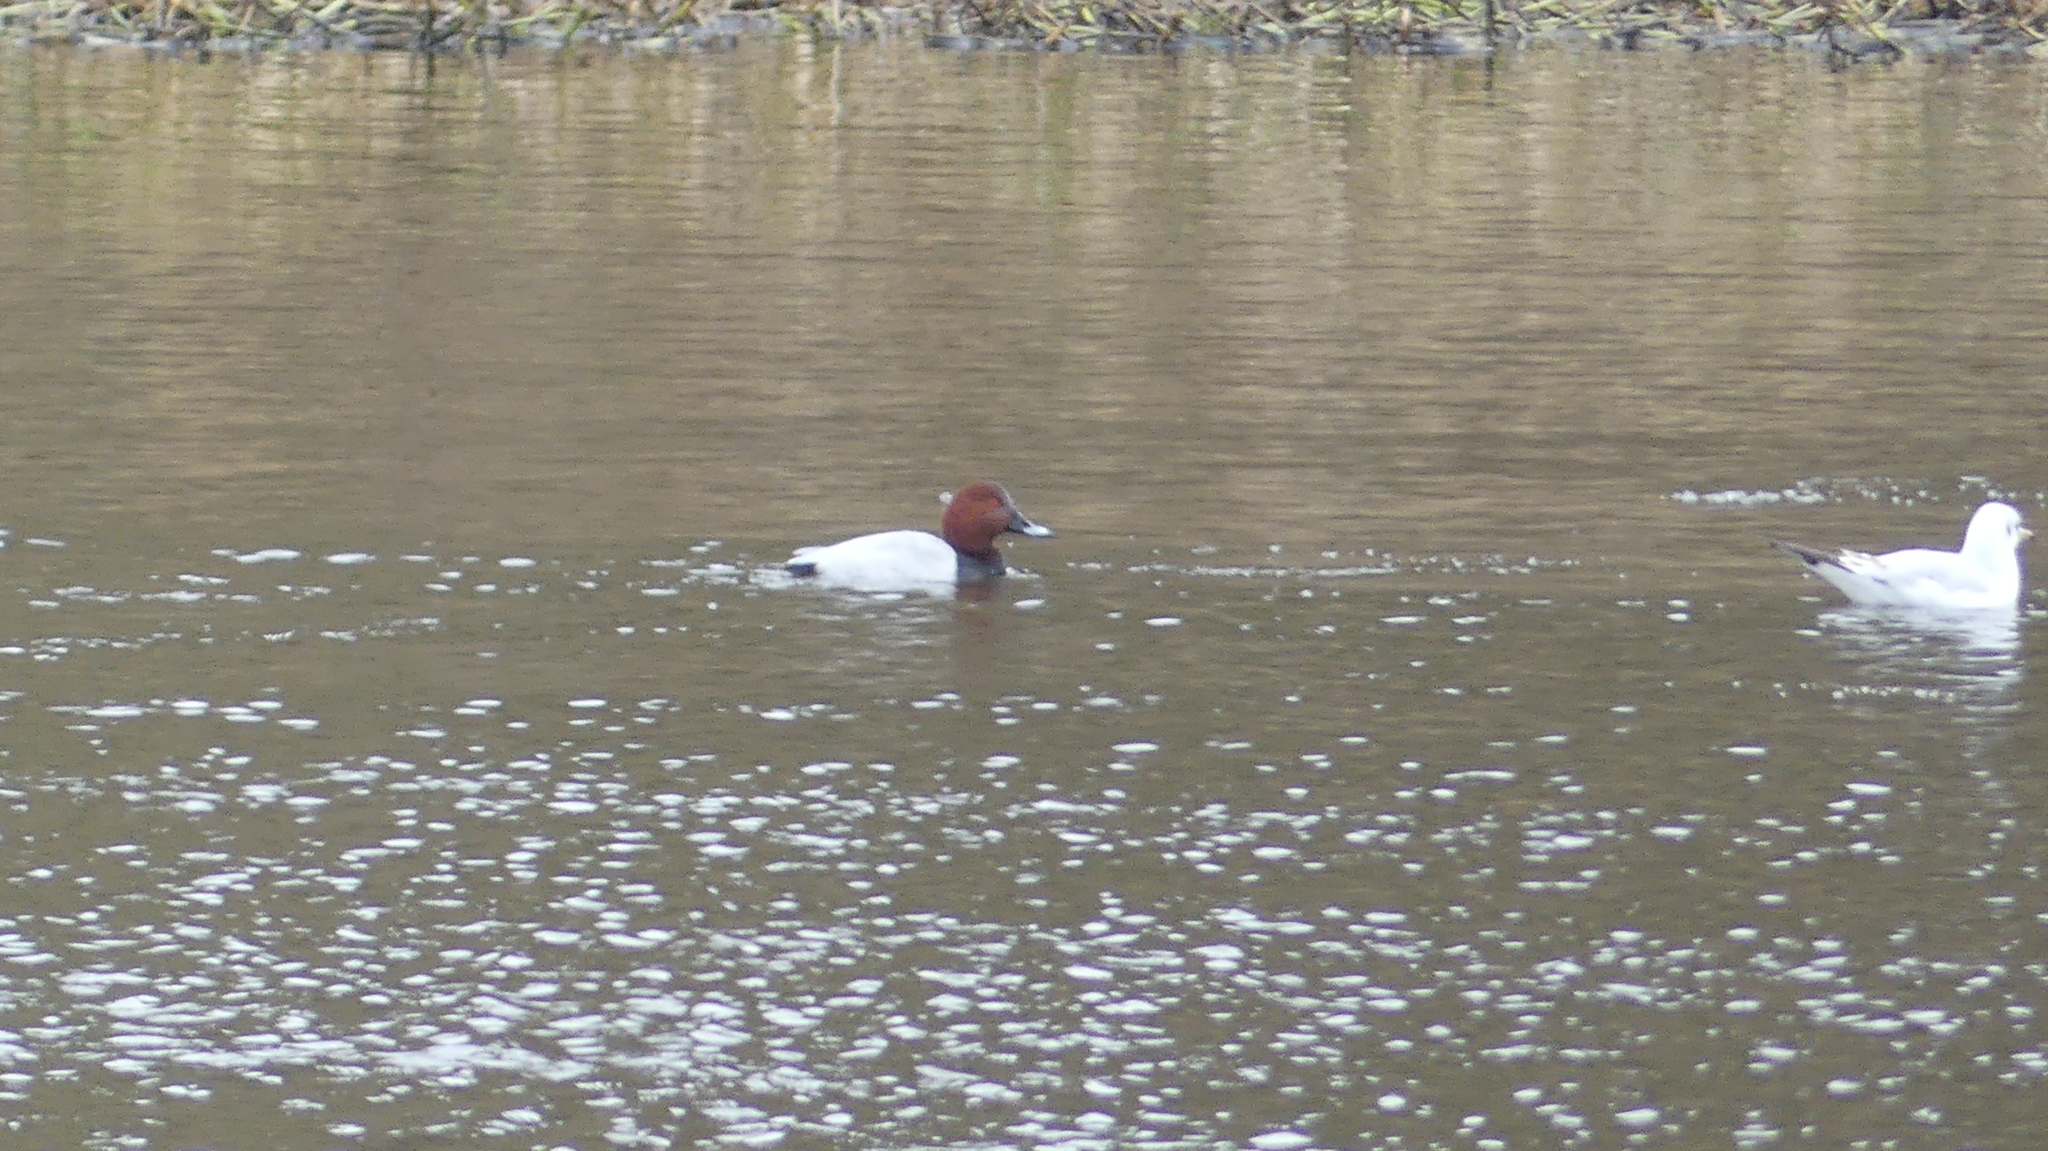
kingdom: Animalia
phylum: Chordata
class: Aves
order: Anseriformes
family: Anatidae
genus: Aythya
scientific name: Aythya ferina
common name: Common pochard
